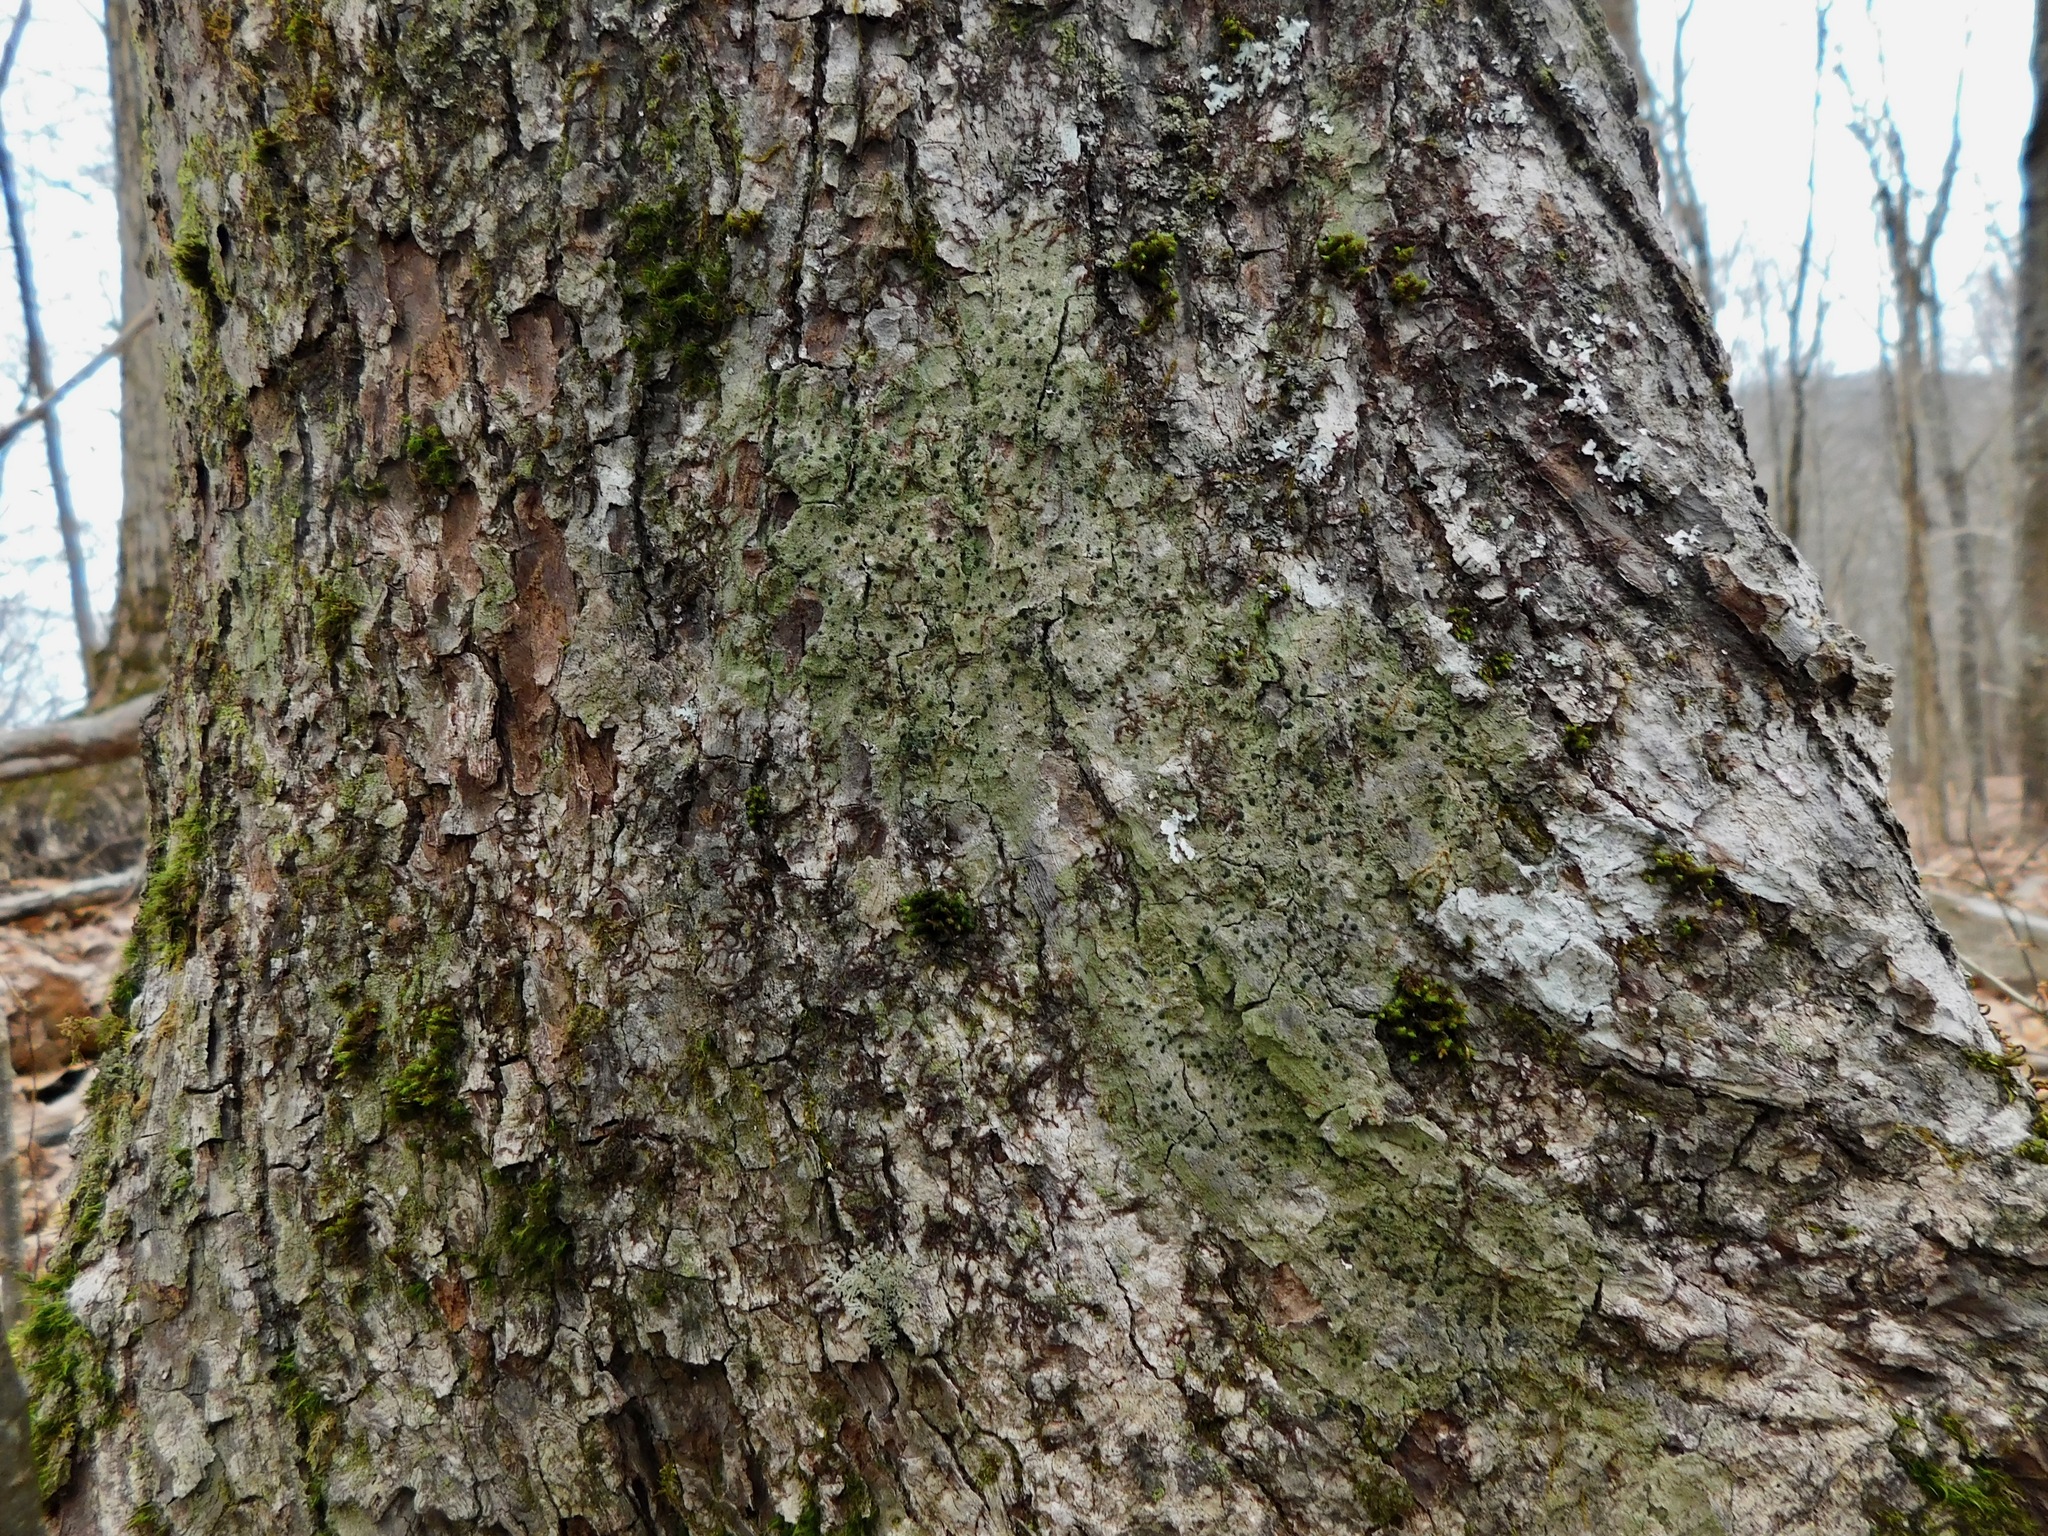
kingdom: Fungi
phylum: Ascomycota
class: Lecanoromycetes
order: Lecanorales
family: Ramalinaceae
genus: Bacidia
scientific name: Bacidia schweinitzii
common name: Surprise lichen
